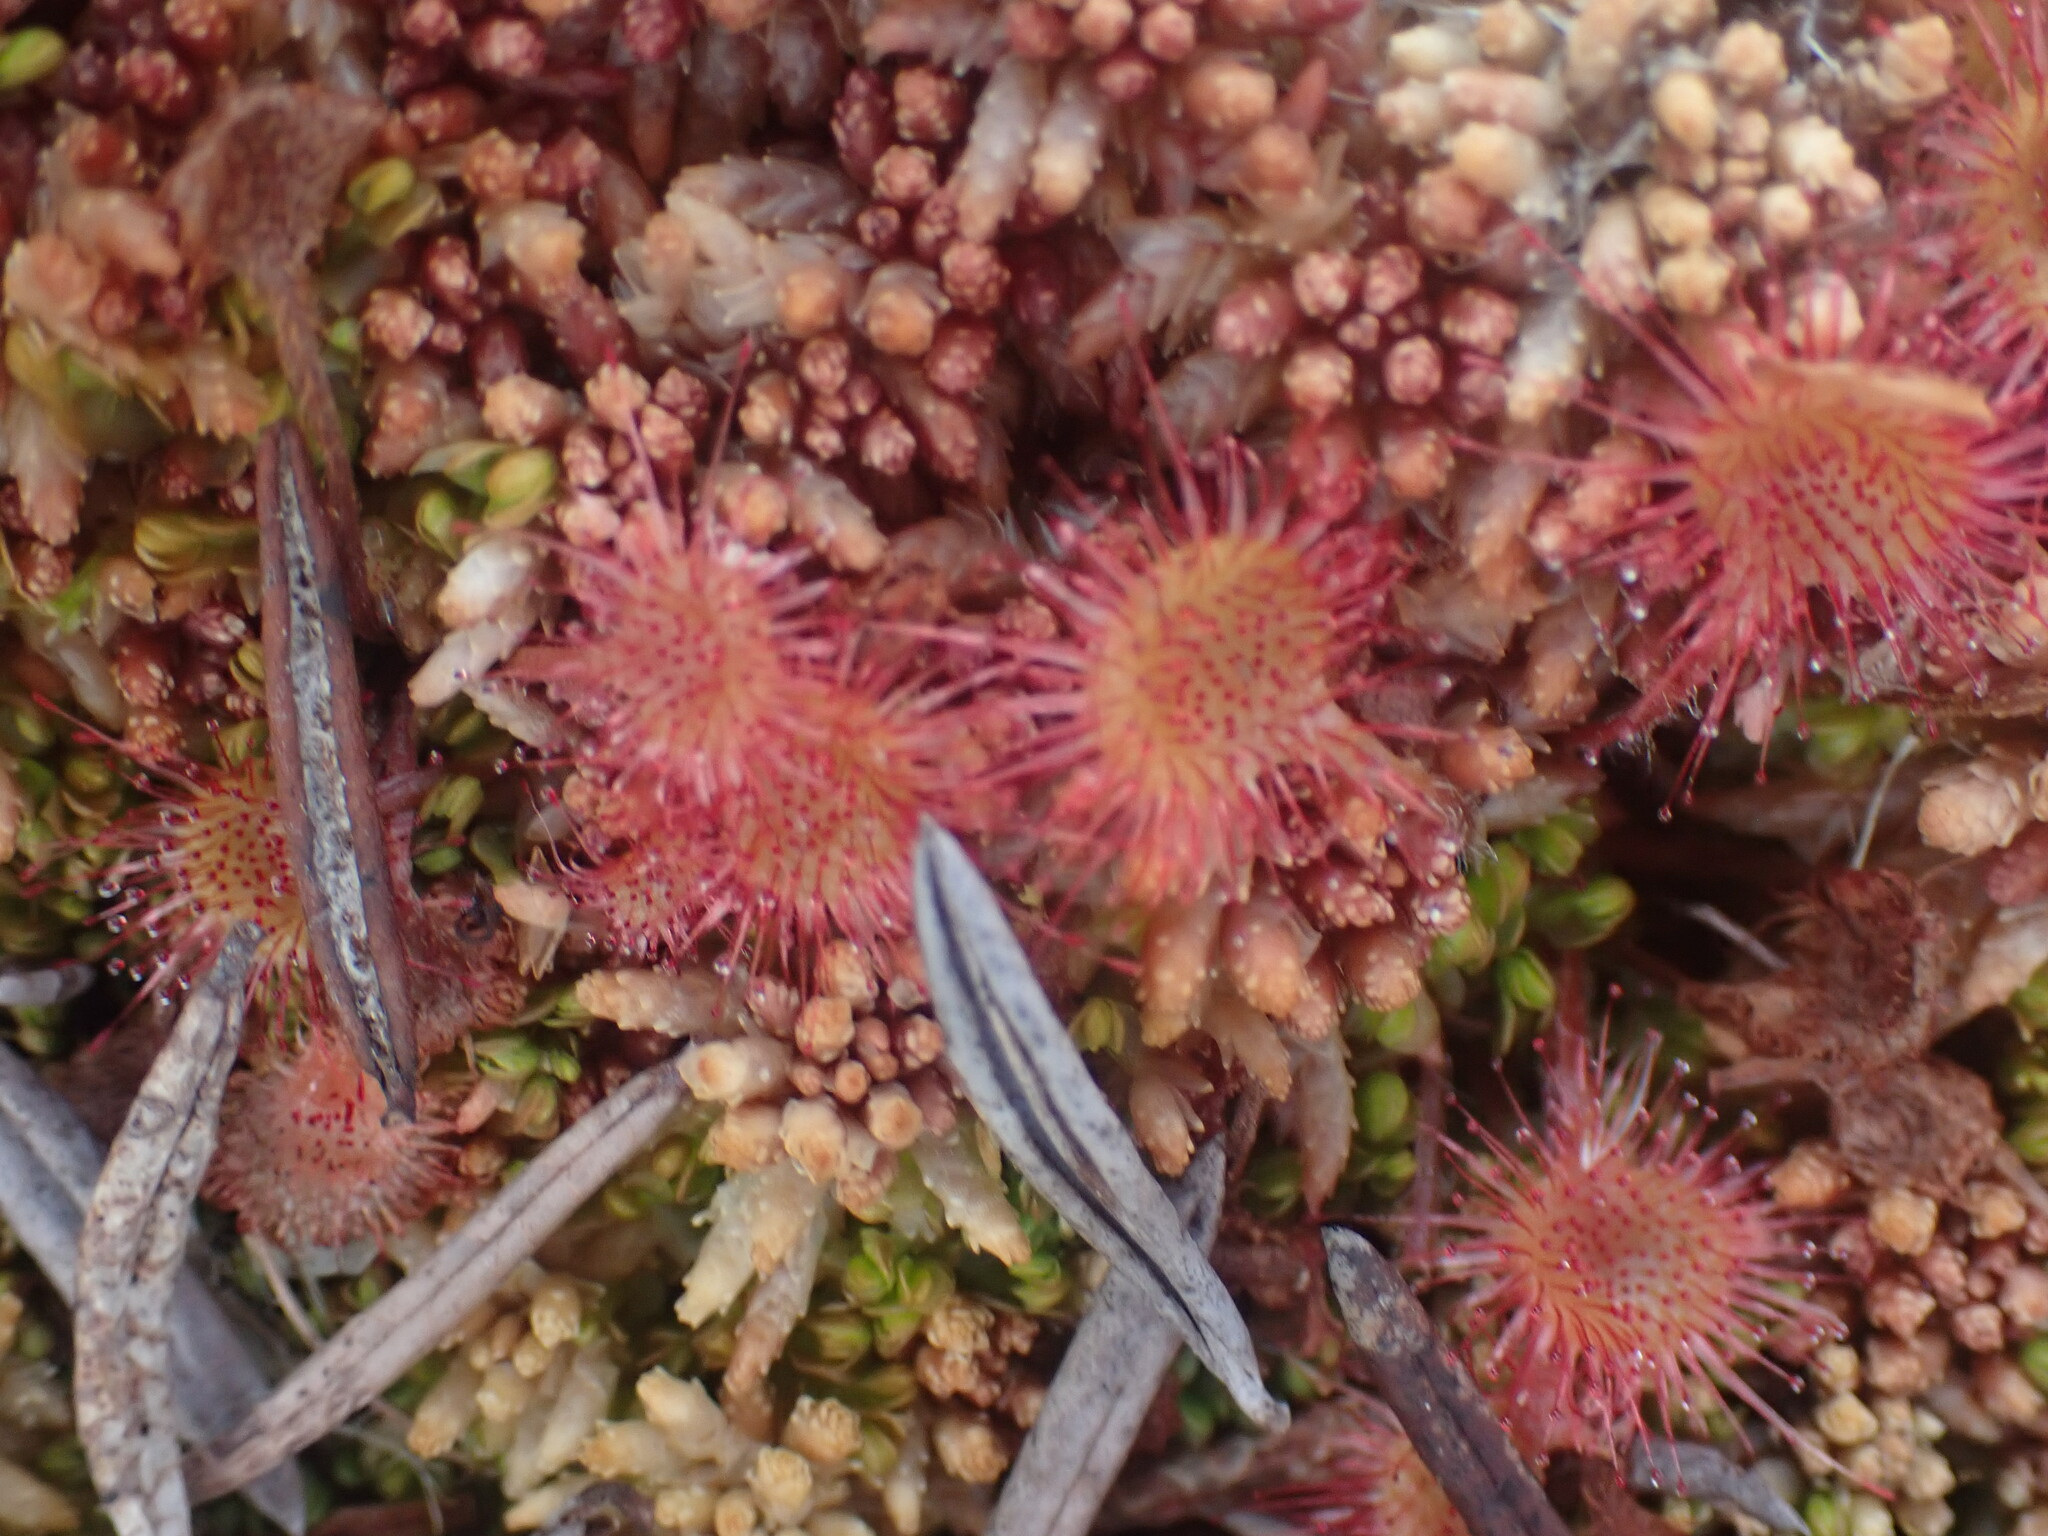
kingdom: Plantae
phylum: Tracheophyta
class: Magnoliopsida
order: Caryophyllales
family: Droseraceae
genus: Drosera
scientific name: Drosera rotundifolia
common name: Round-leaved sundew
